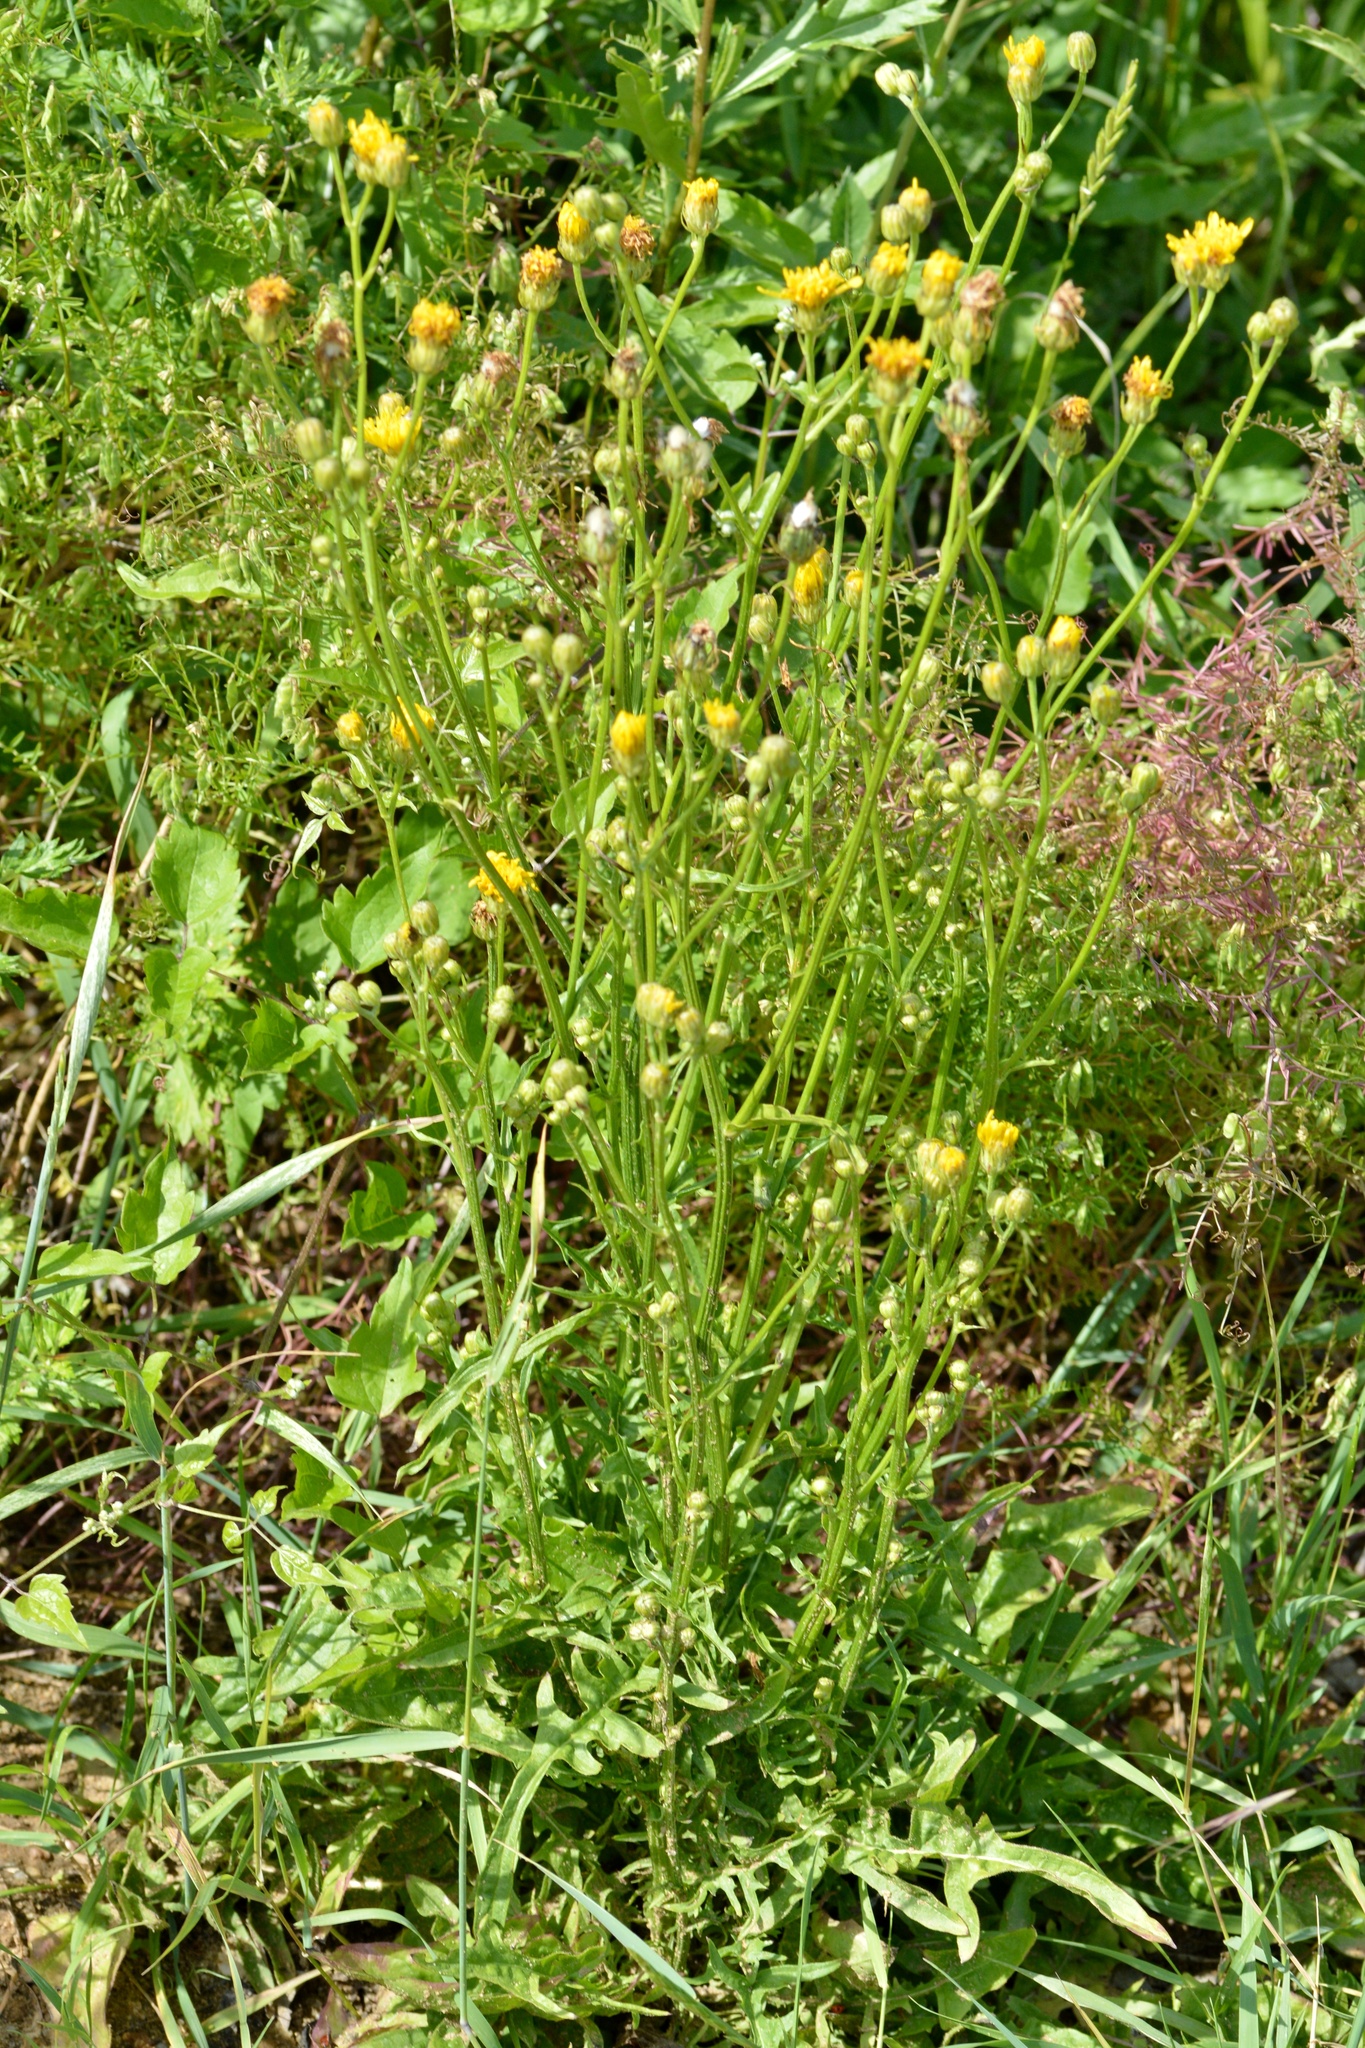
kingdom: Plantae
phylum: Tracheophyta
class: Magnoliopsida
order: Asterales
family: Asteraceae
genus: Crepis
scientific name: Crepis biennis
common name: Rough hawk's-beard
